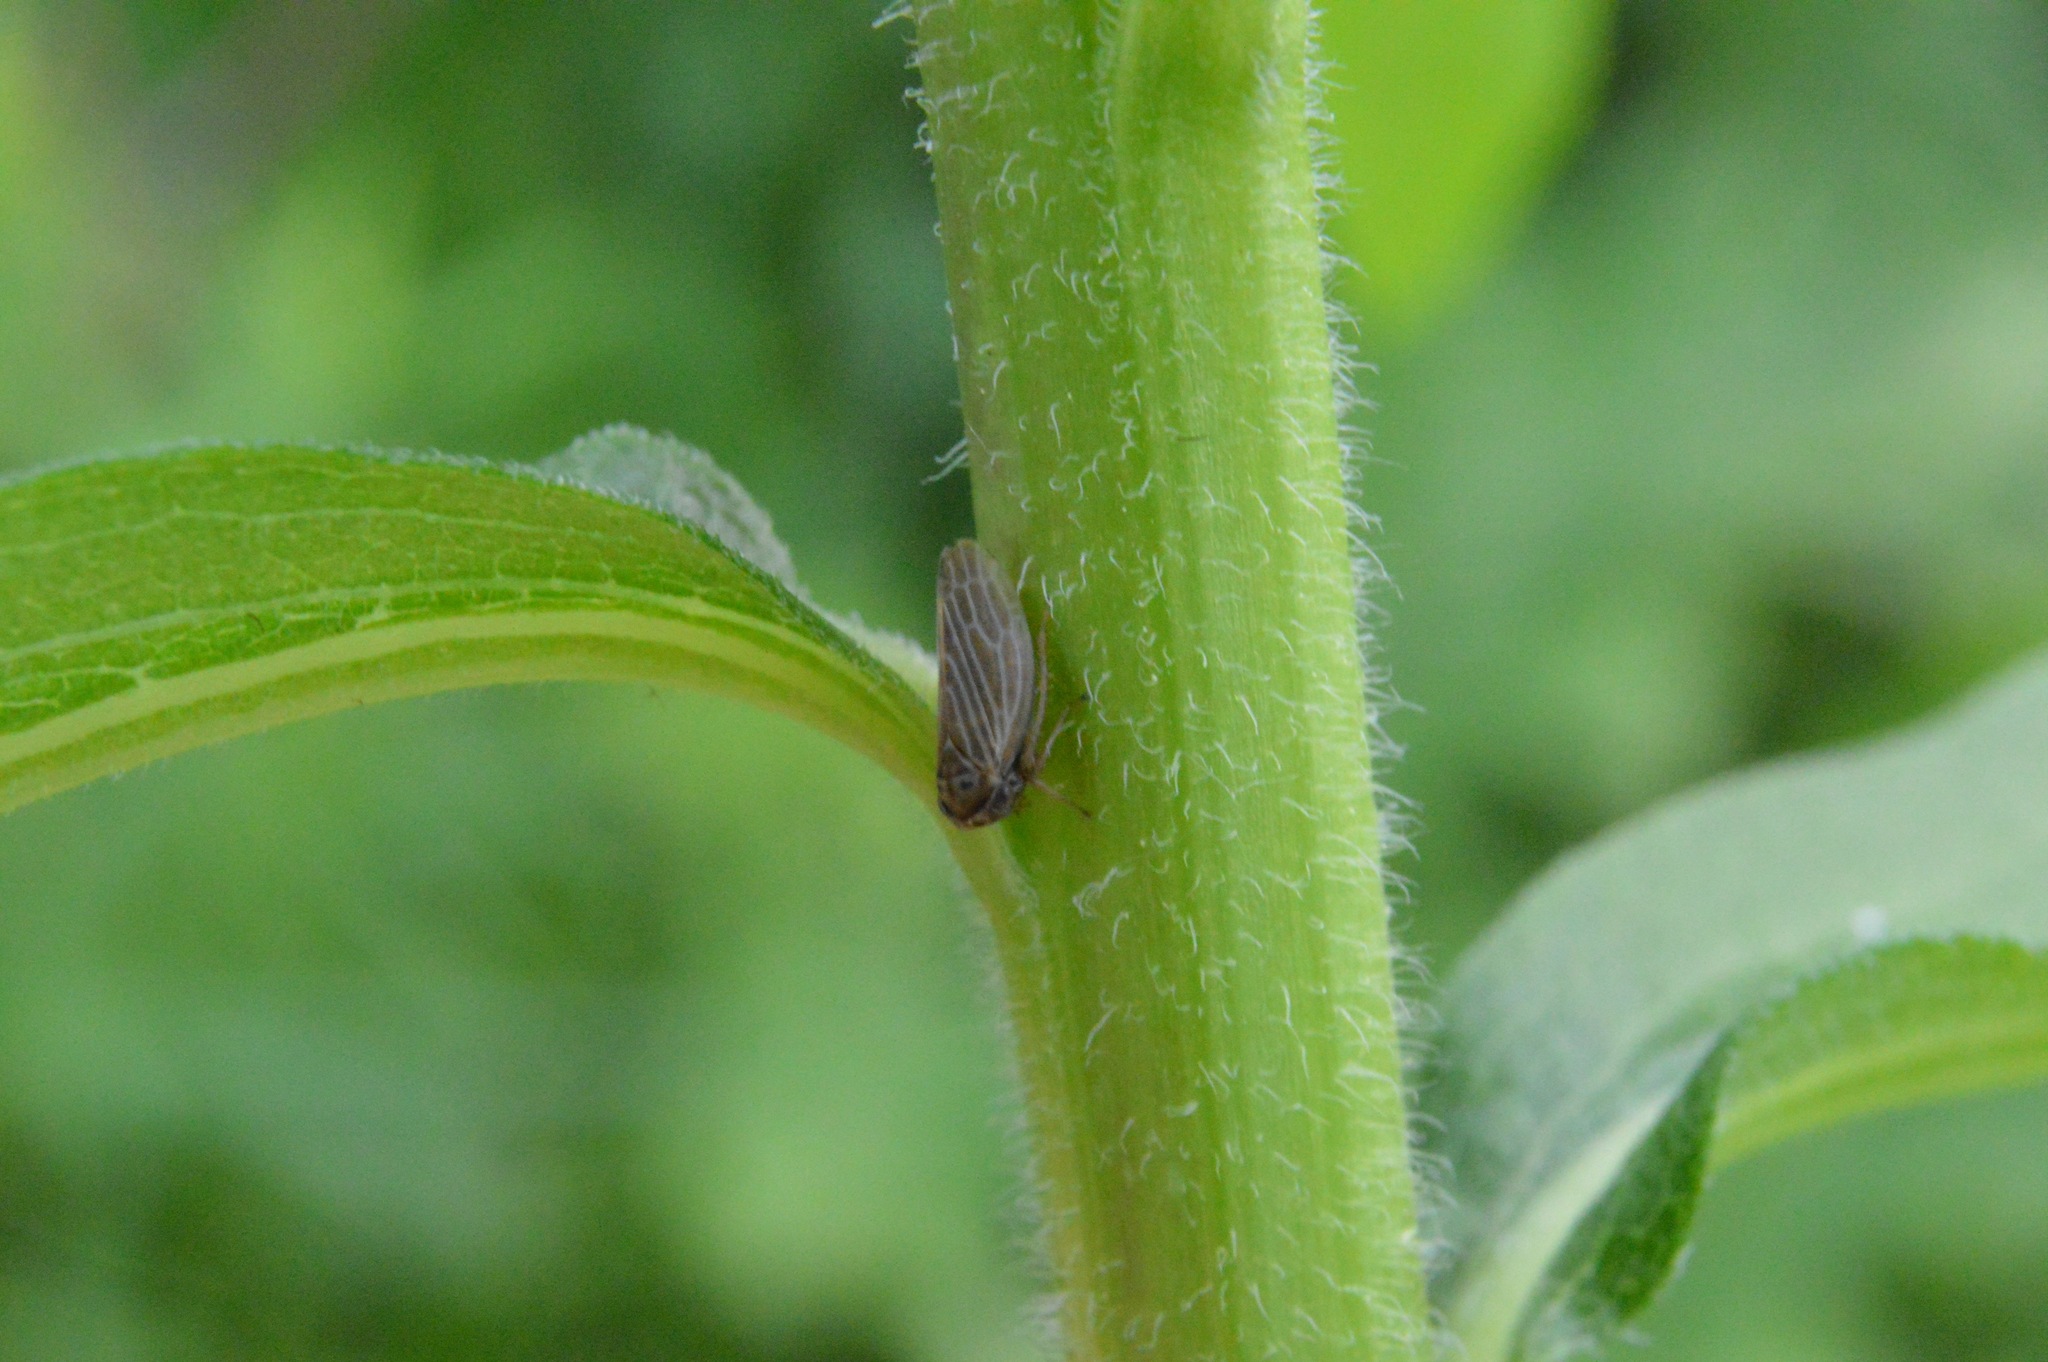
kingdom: Animalia
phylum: Arthropoda
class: Insecta
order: Hemiptera
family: Cicadellidae
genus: Agallia
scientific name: Agallia
